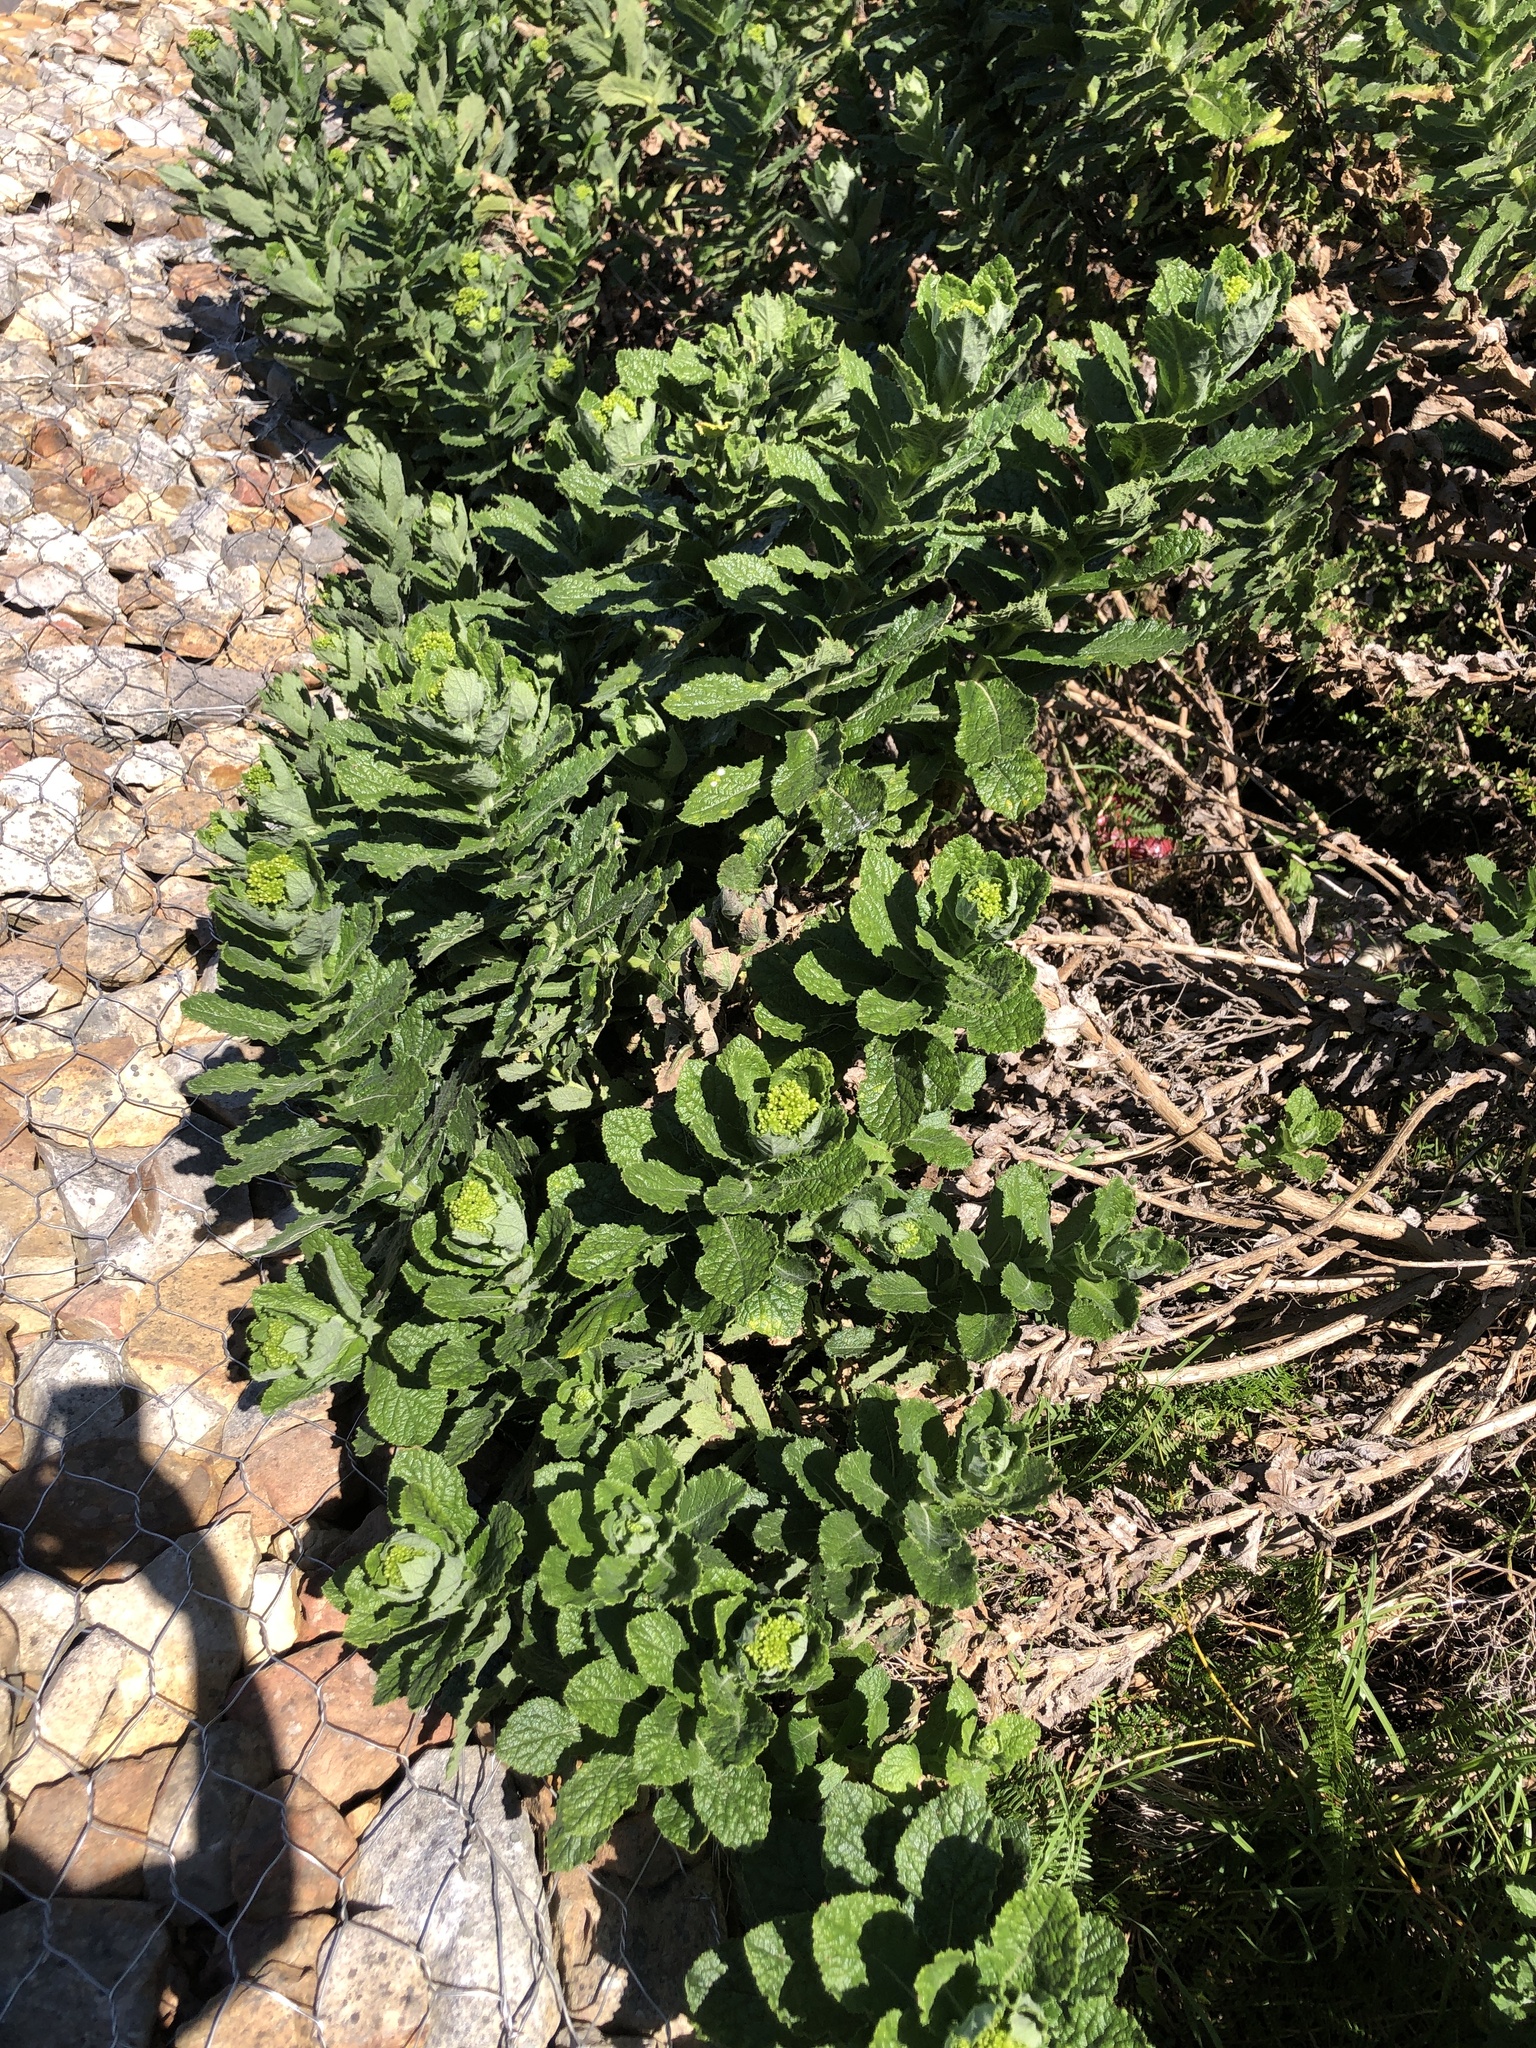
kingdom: Plantae
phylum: Tracheophyta
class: Magnoliopsida
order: Asterales
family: Asteraceae
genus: Senecio
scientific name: Senecio rigidus
